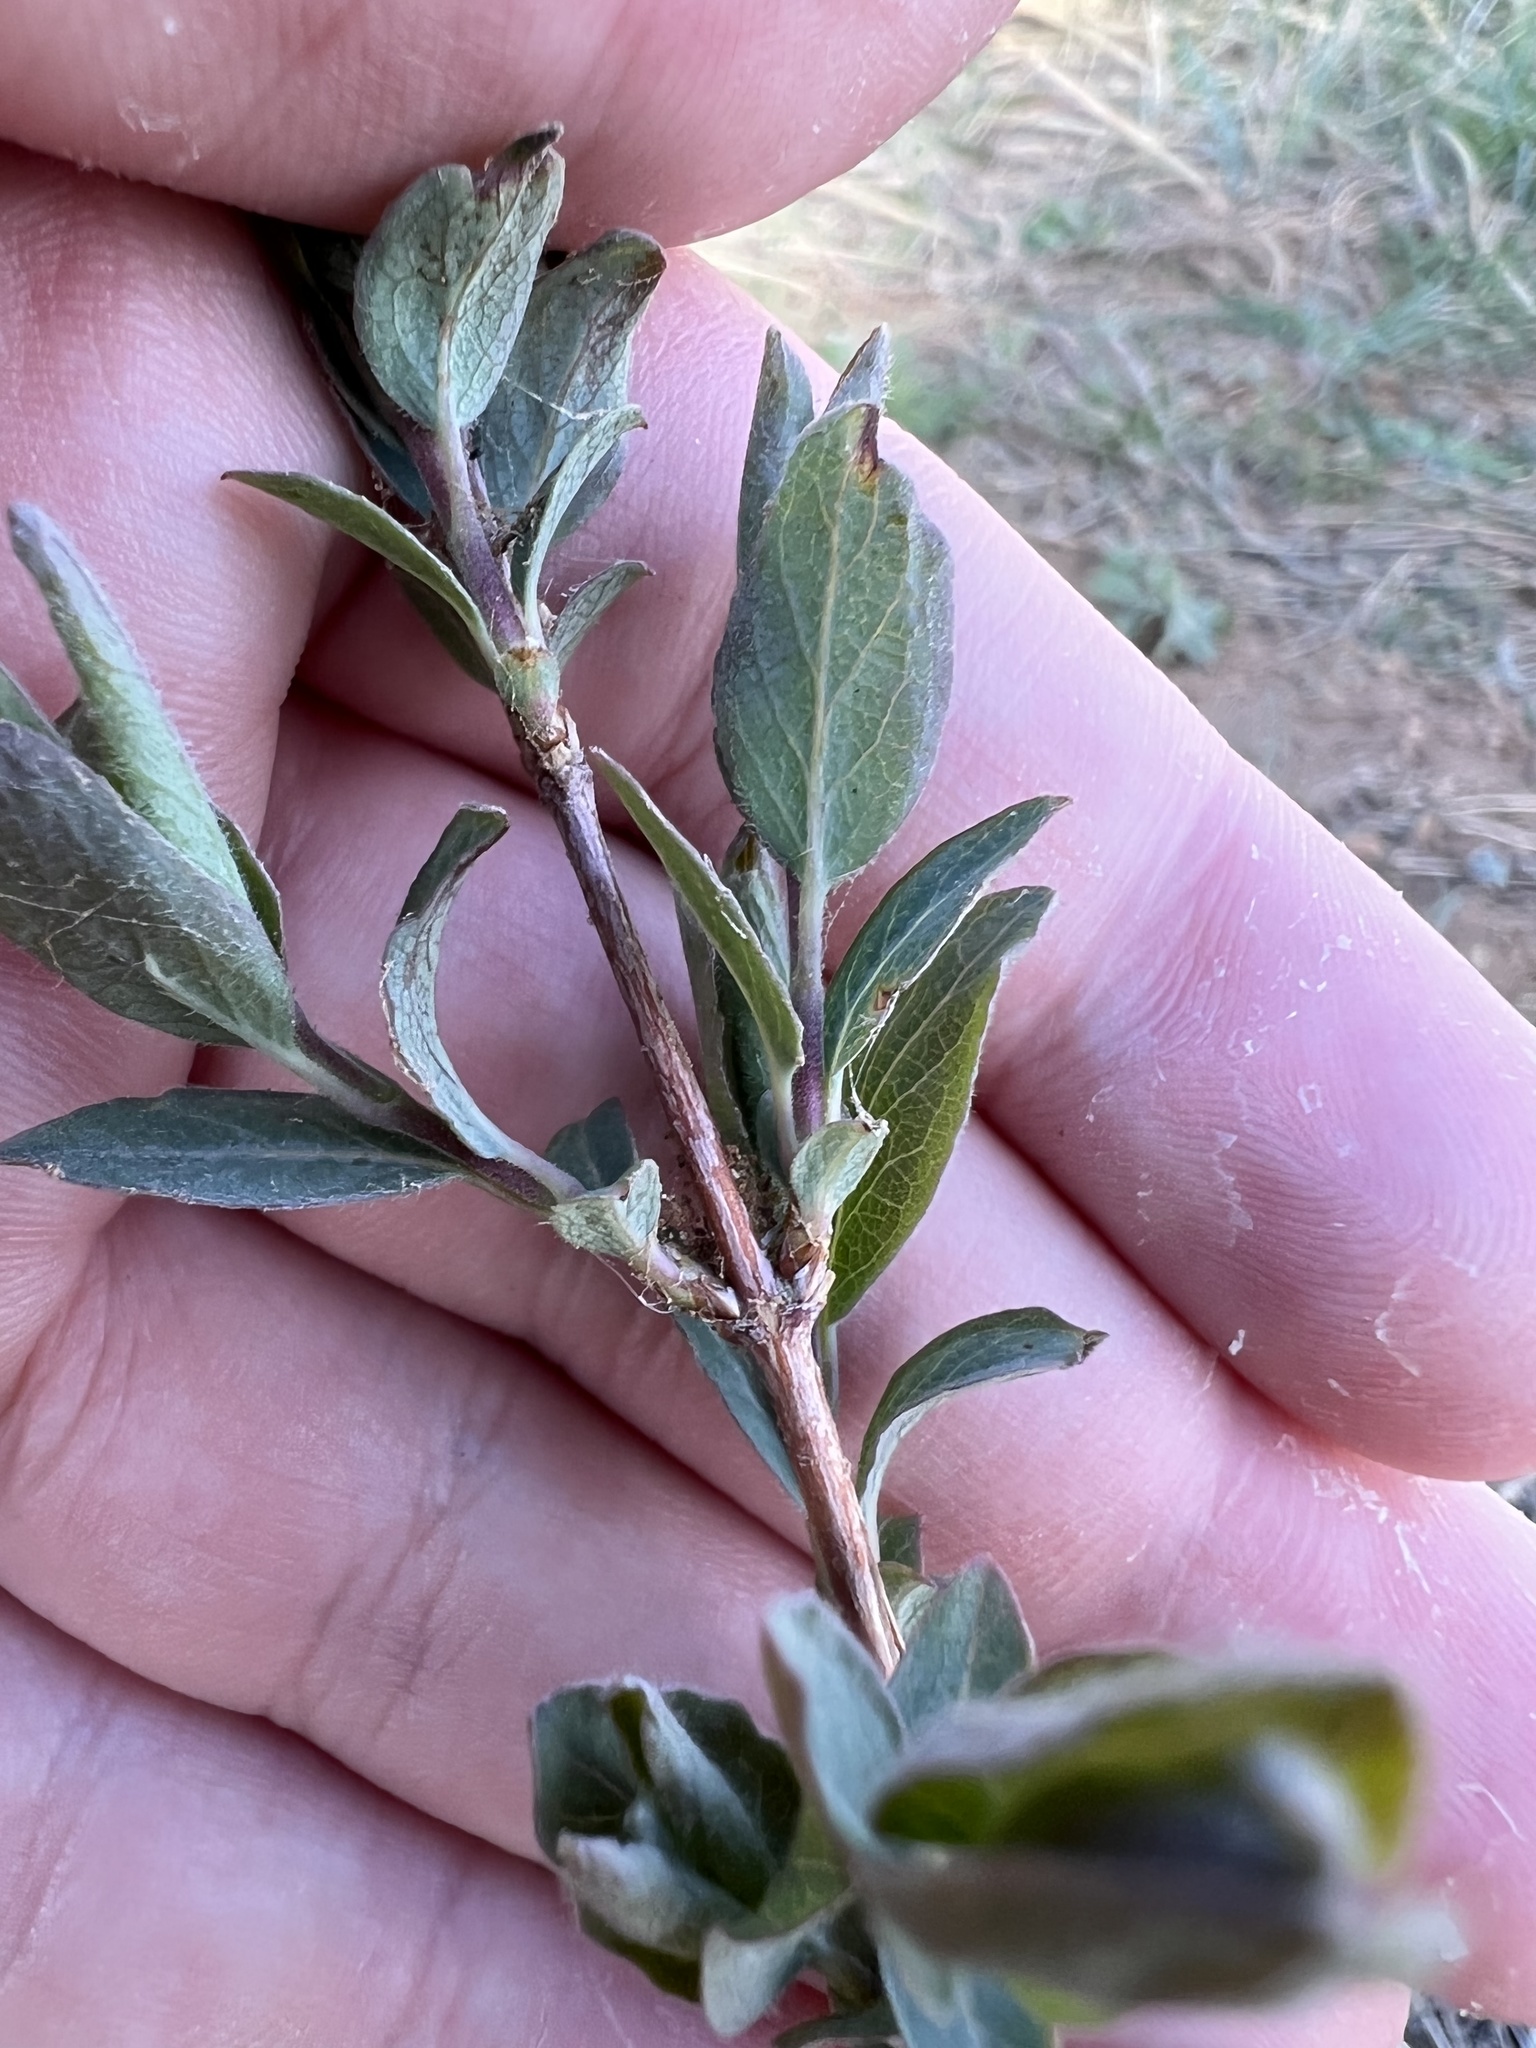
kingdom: Plantae
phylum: Tracheophyta
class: Magnoliopsida
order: Dipsacales
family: Caprifoliaceae
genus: Symphoricarpos
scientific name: Symphoricarpos
